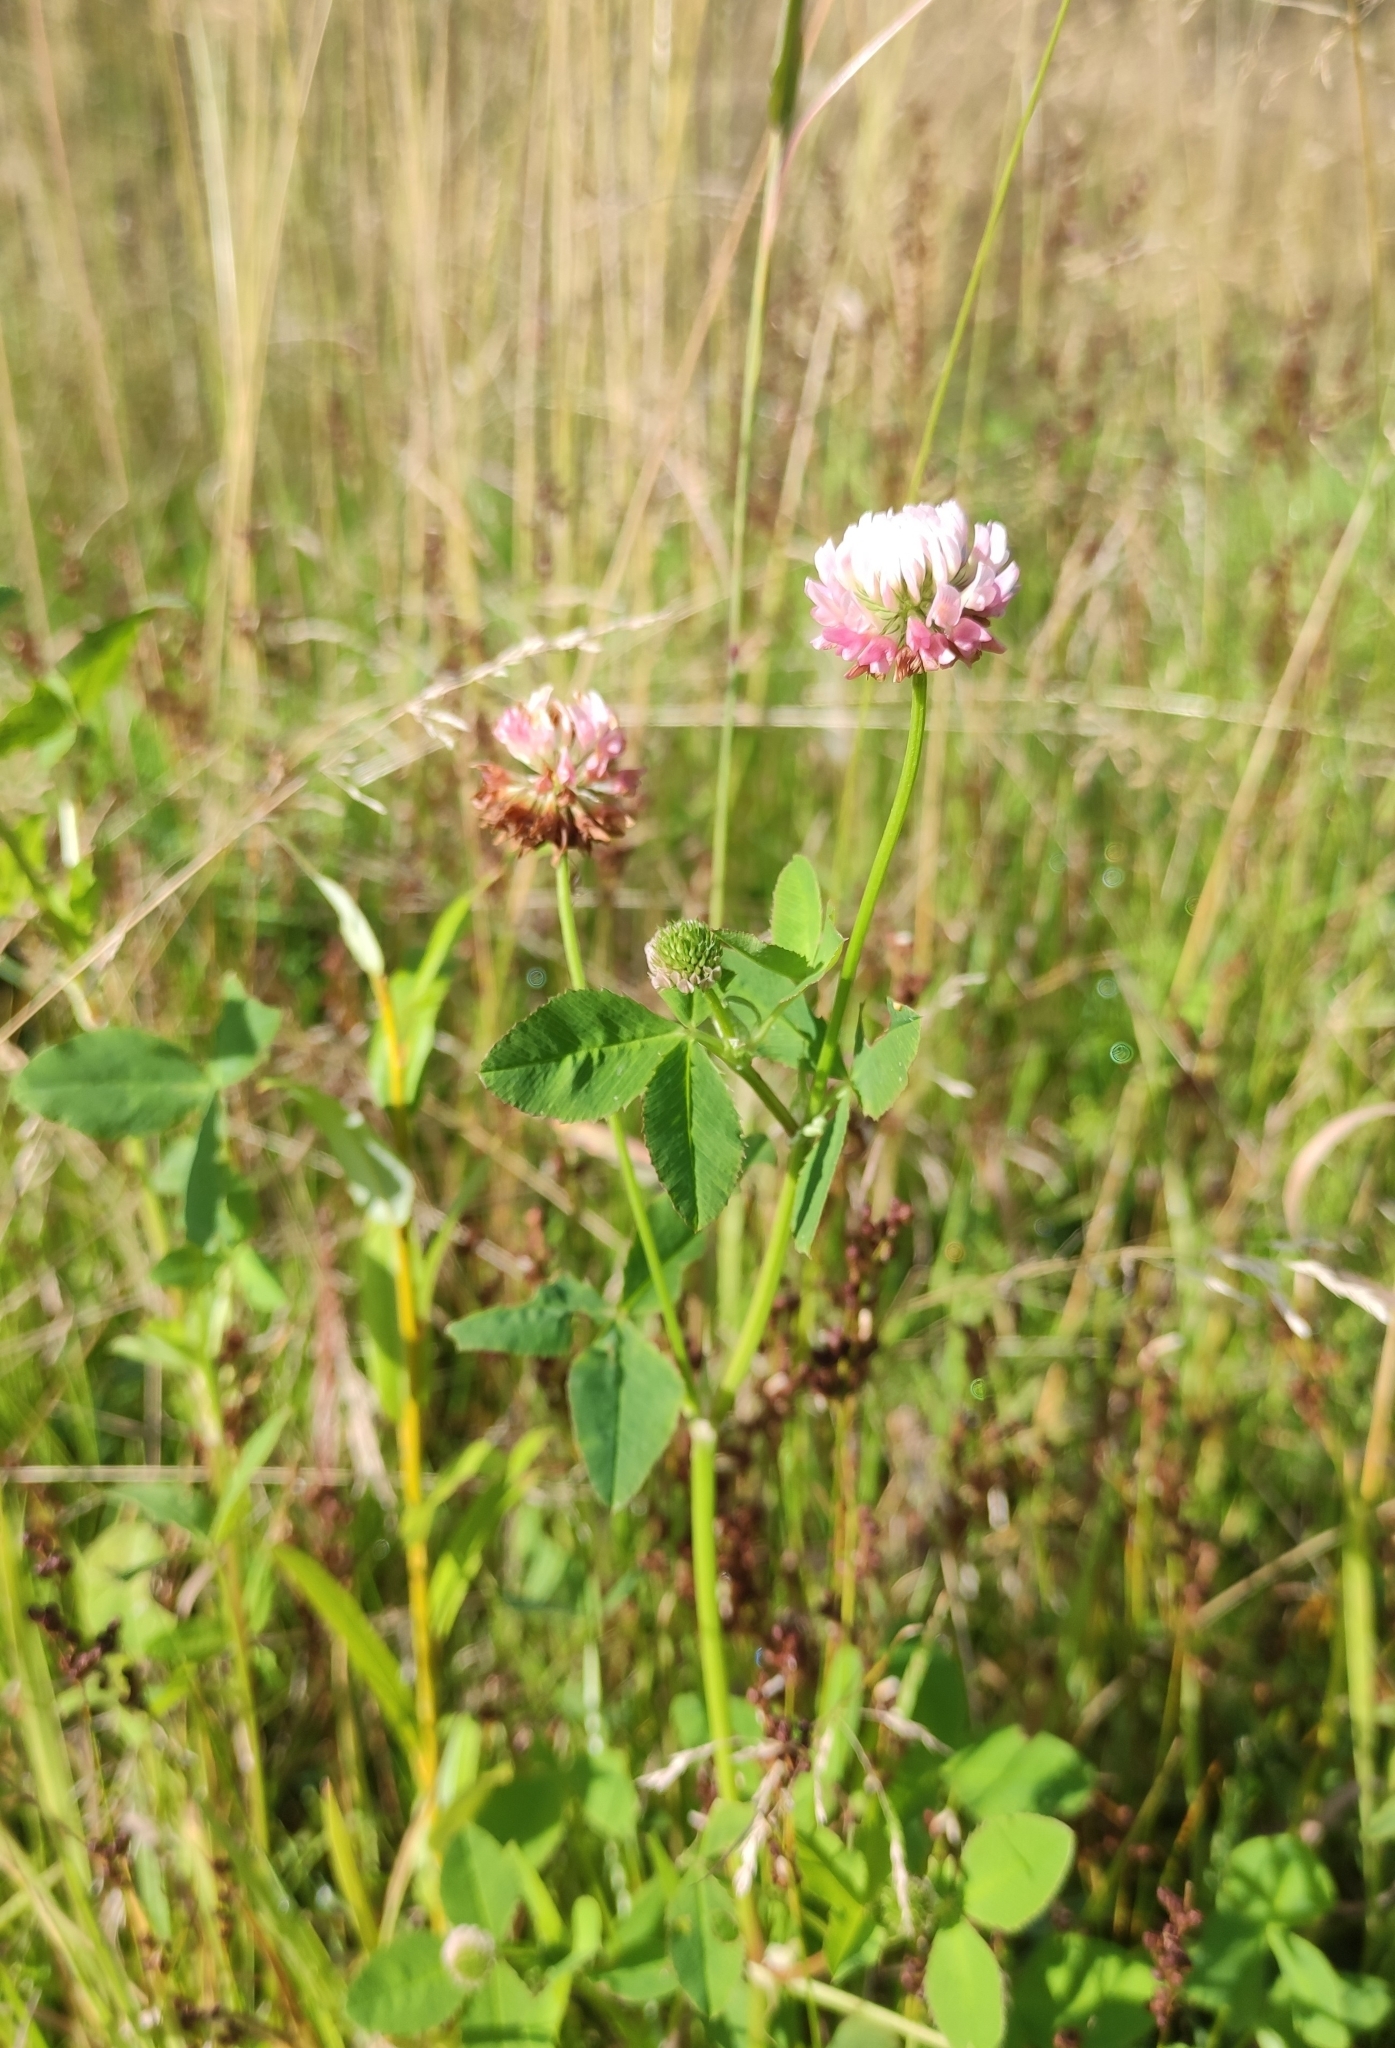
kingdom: Plantae
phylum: Tracheophyta
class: Magnoliopsida
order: Fabales
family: Fabaceae
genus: Trifolium
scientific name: Trifolium hybridum
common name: Alsike clover
